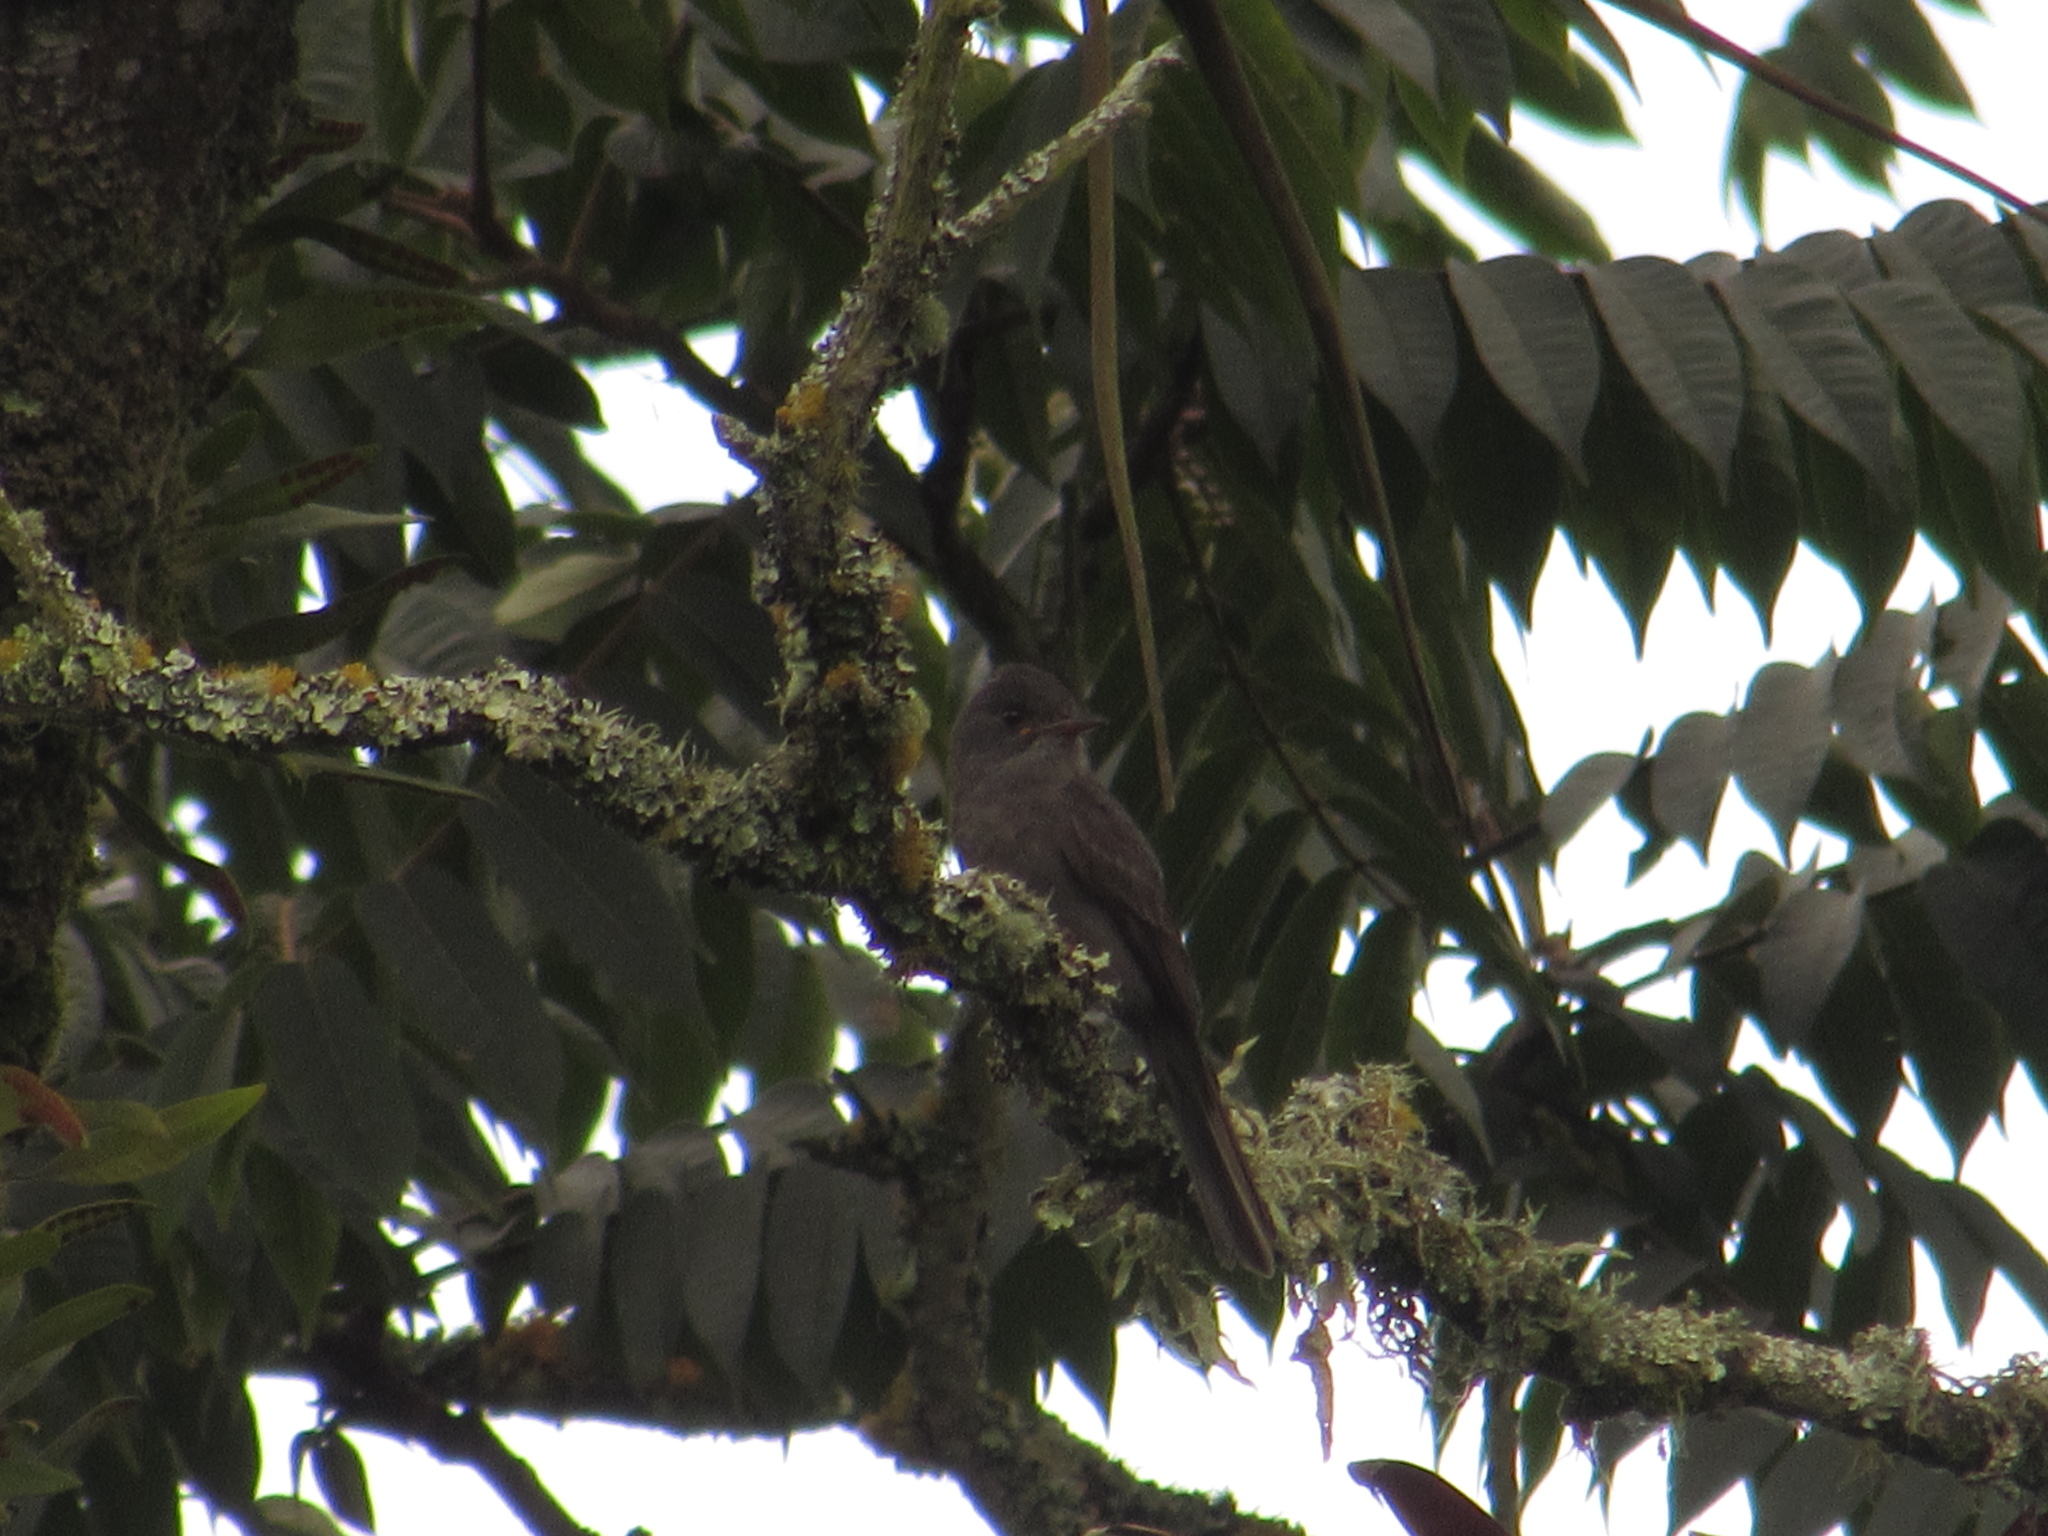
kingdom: Animalia
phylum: Chordata
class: Aves
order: Passeriformes
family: Tyrannidae
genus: Contopus
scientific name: Contopus fumigatus
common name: Smoke-colored pewee
